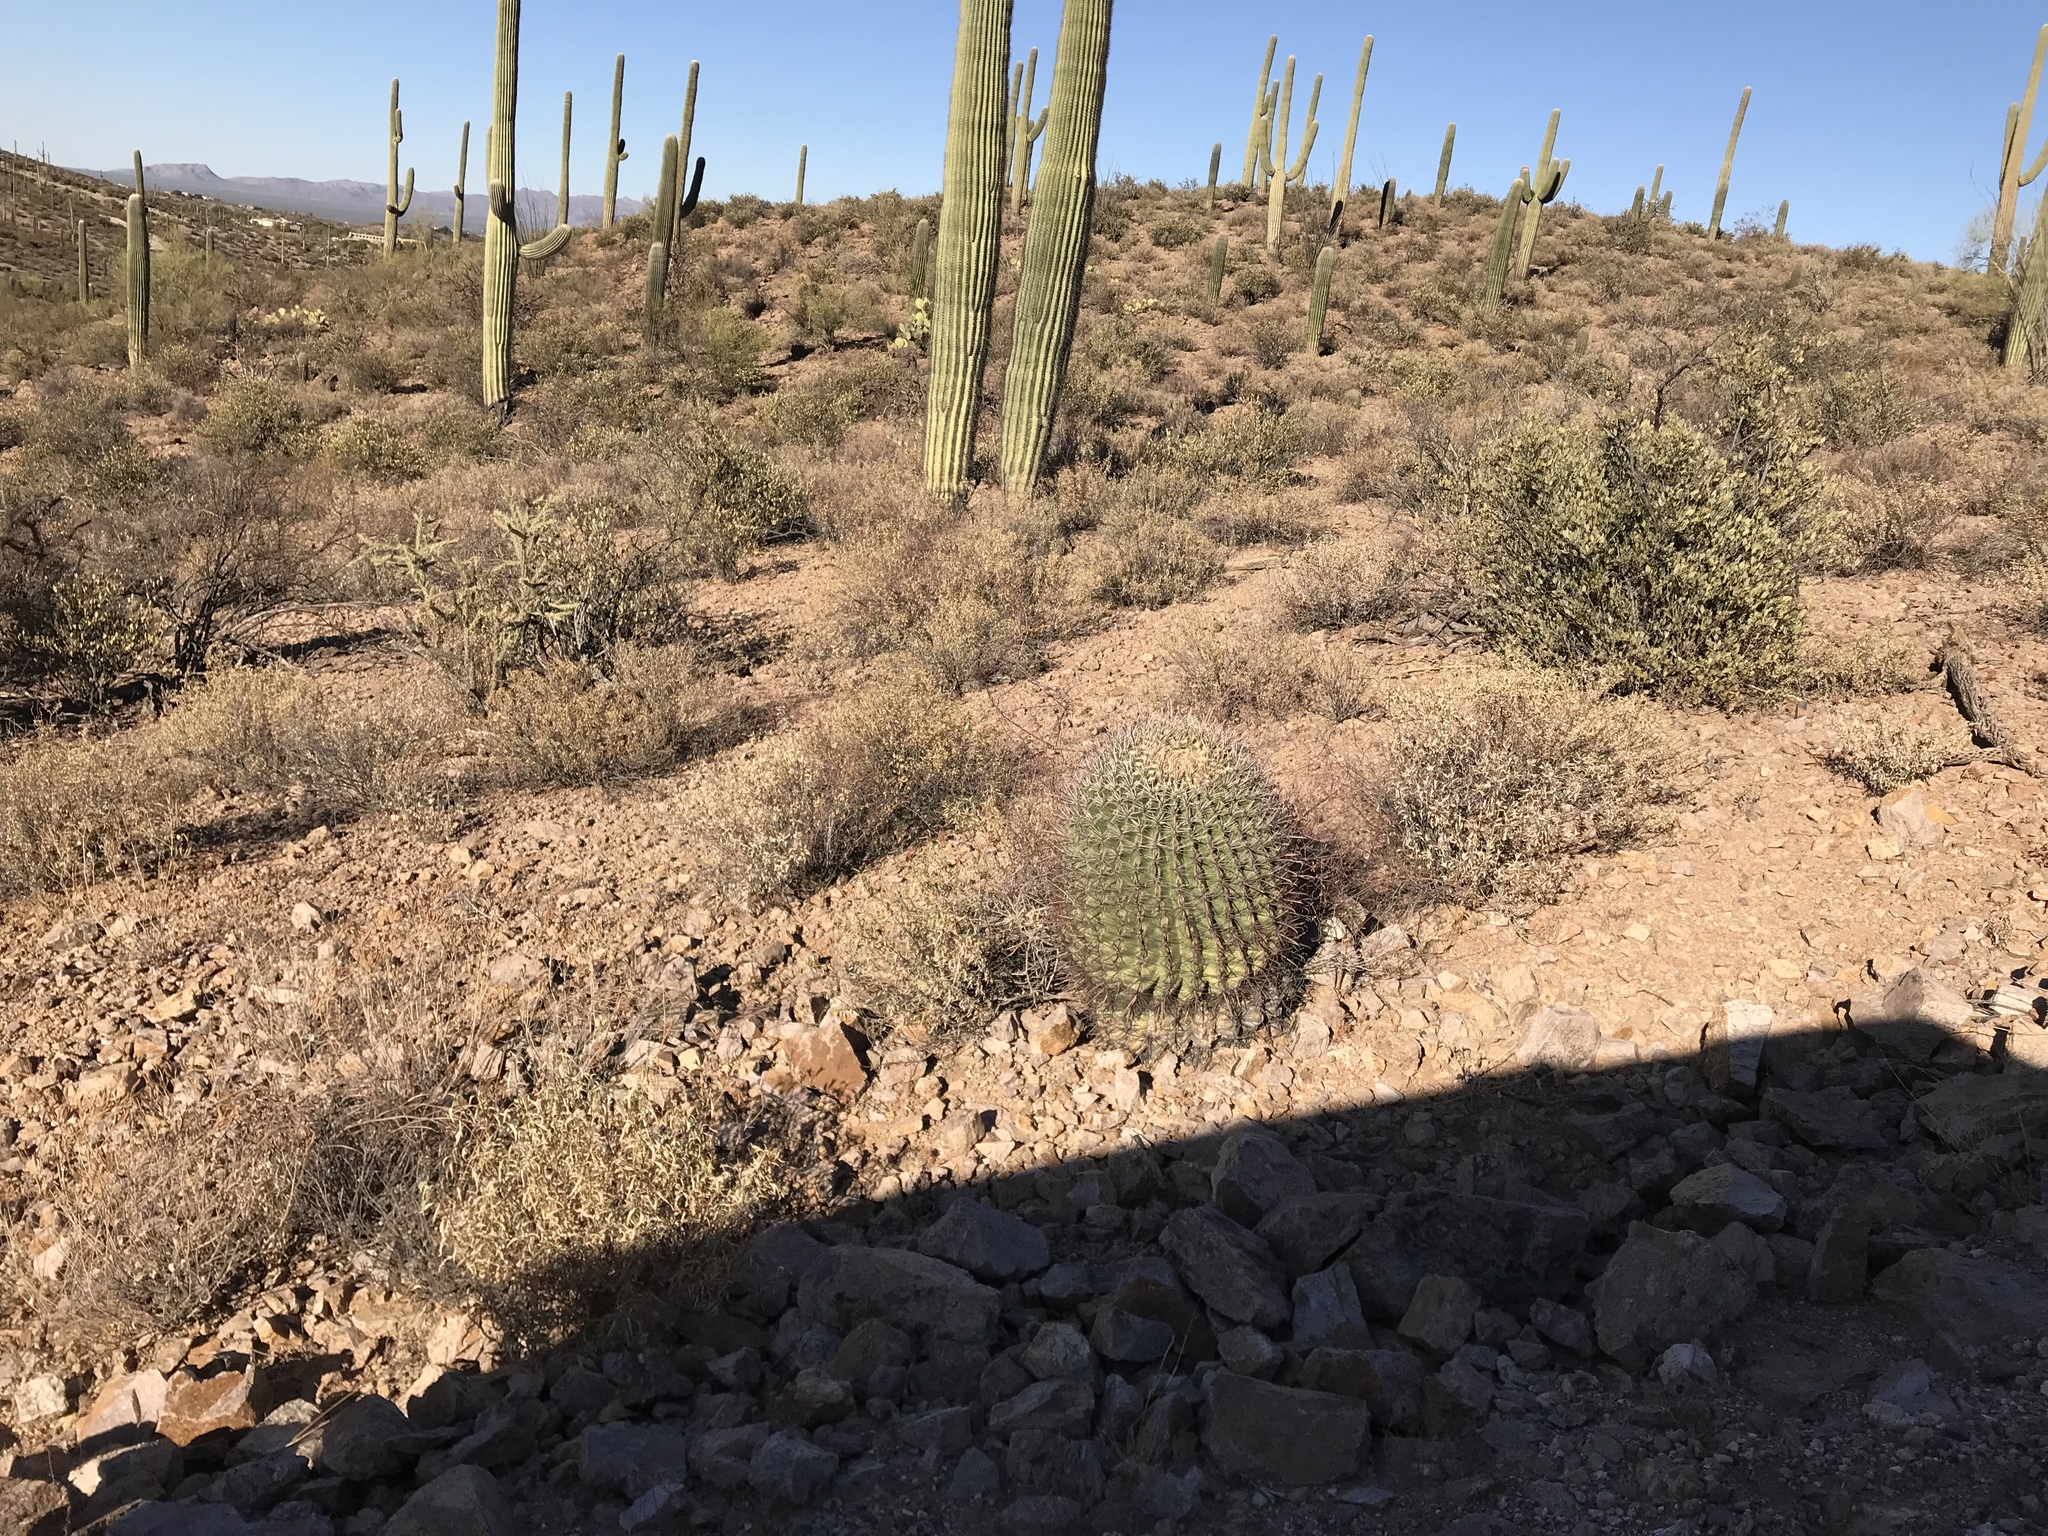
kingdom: Plantae
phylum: Tracheophyta
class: Magnoliopsida
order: Caryophyllales
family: Cactaceae
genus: Ferocactus
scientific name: Ferocactus wislizeni
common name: Candy barrel cactus
